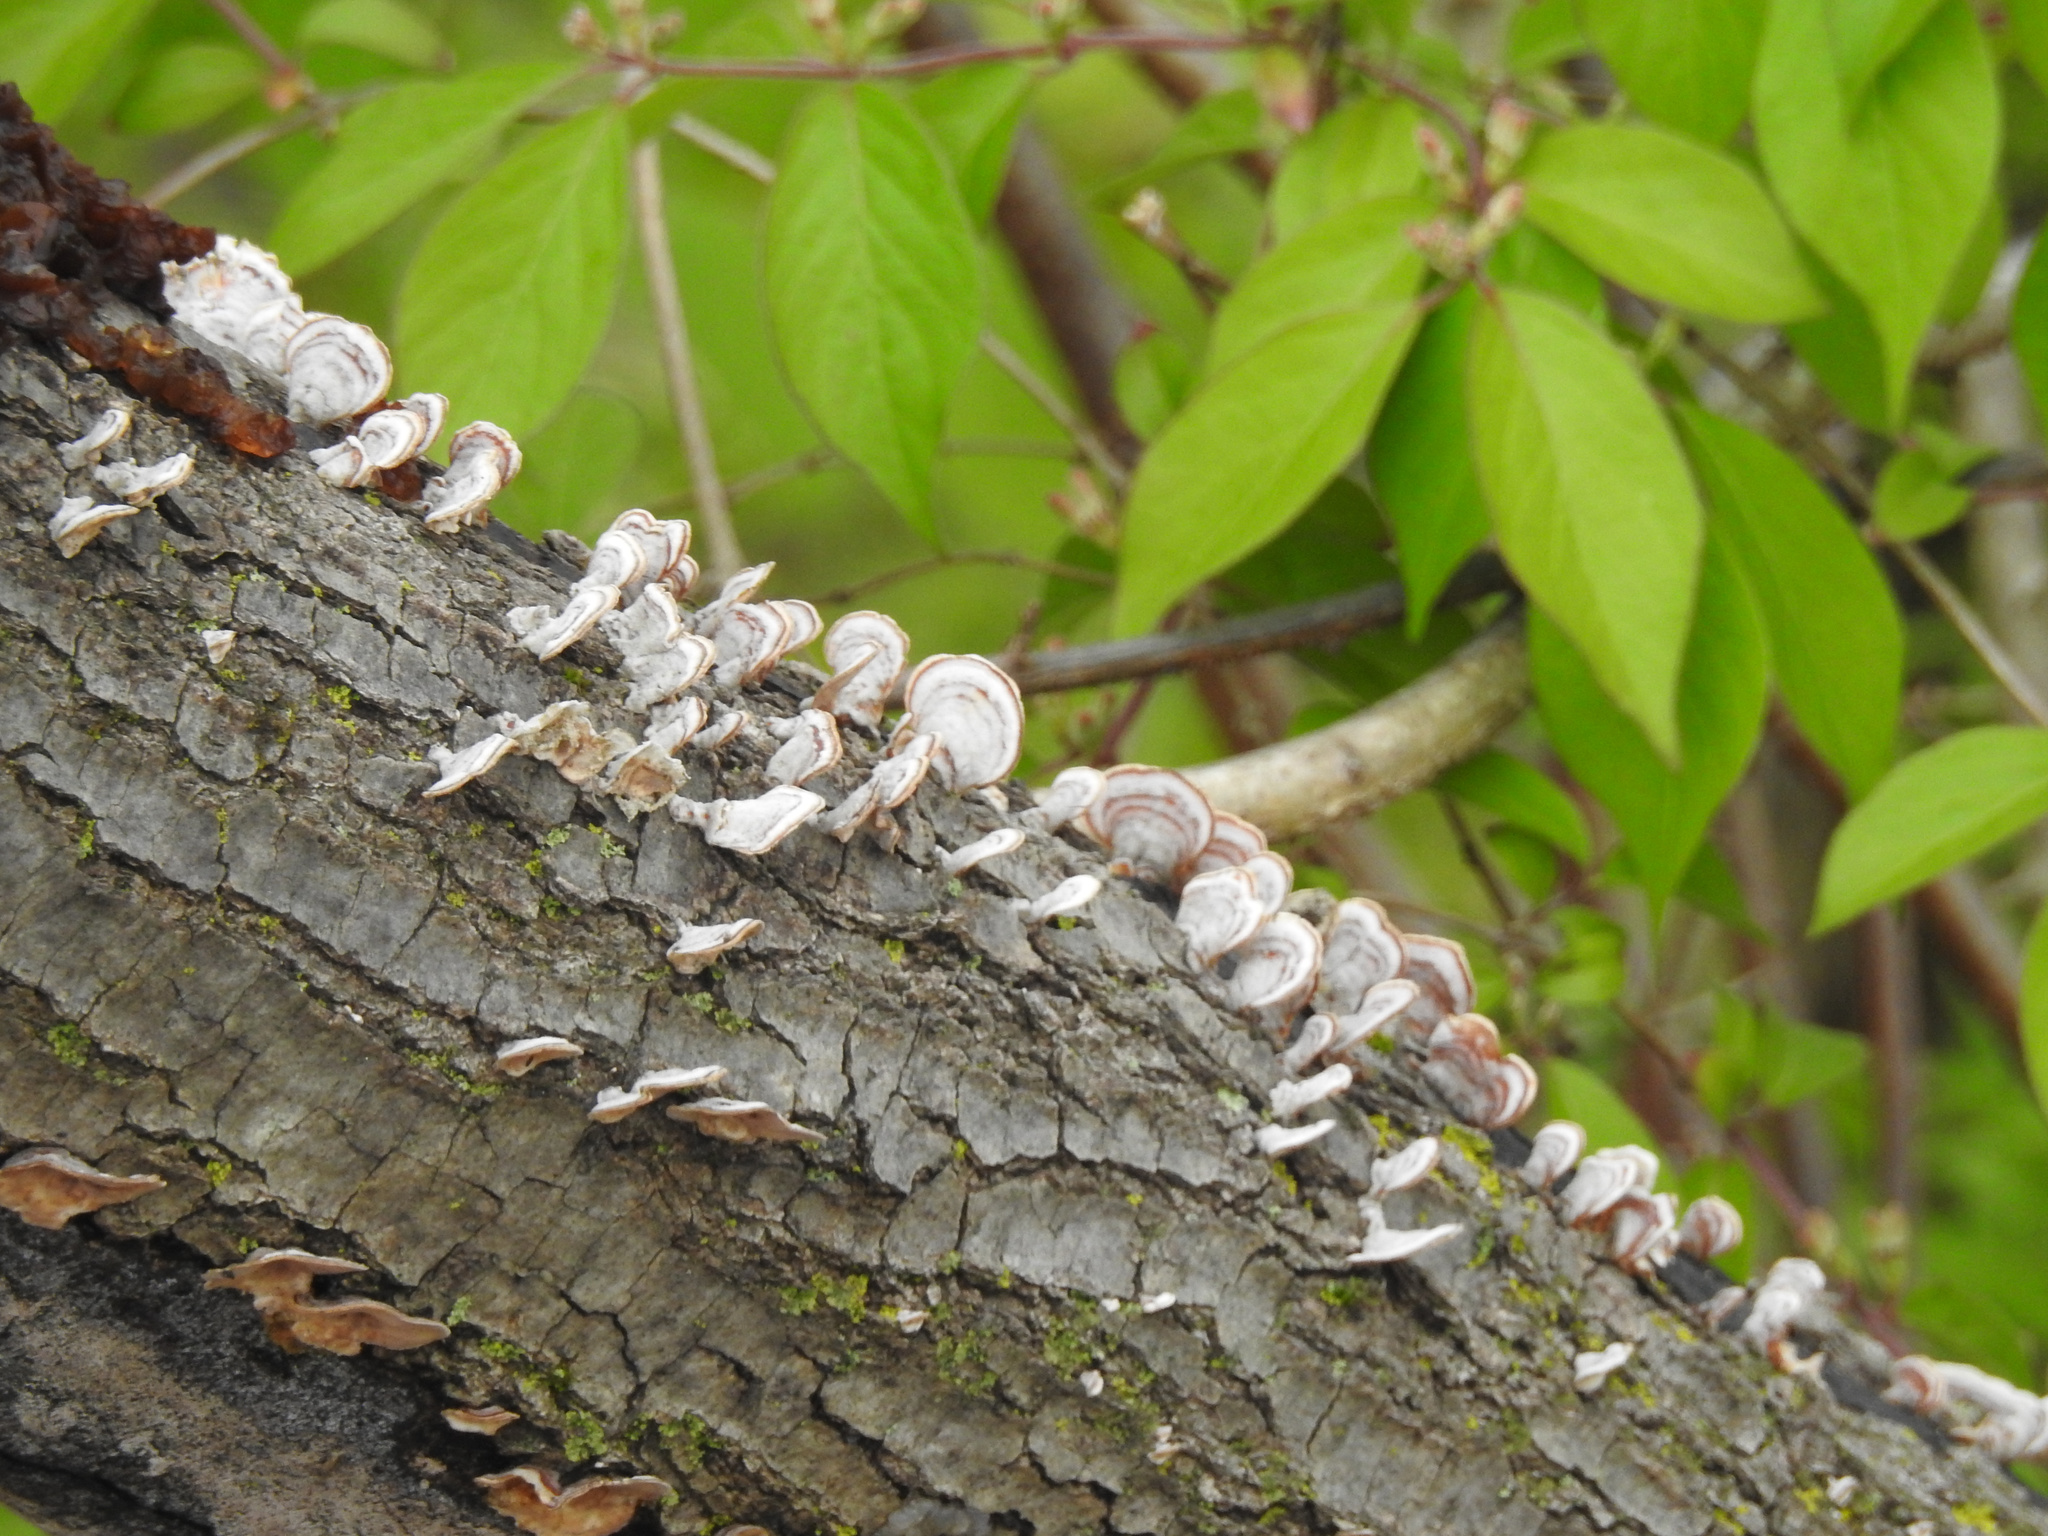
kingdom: Fungi
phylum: Basidiomycota
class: Agaricomycetes
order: Auriculariales
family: Auriculariaceae
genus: Exidia
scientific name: Exidia
